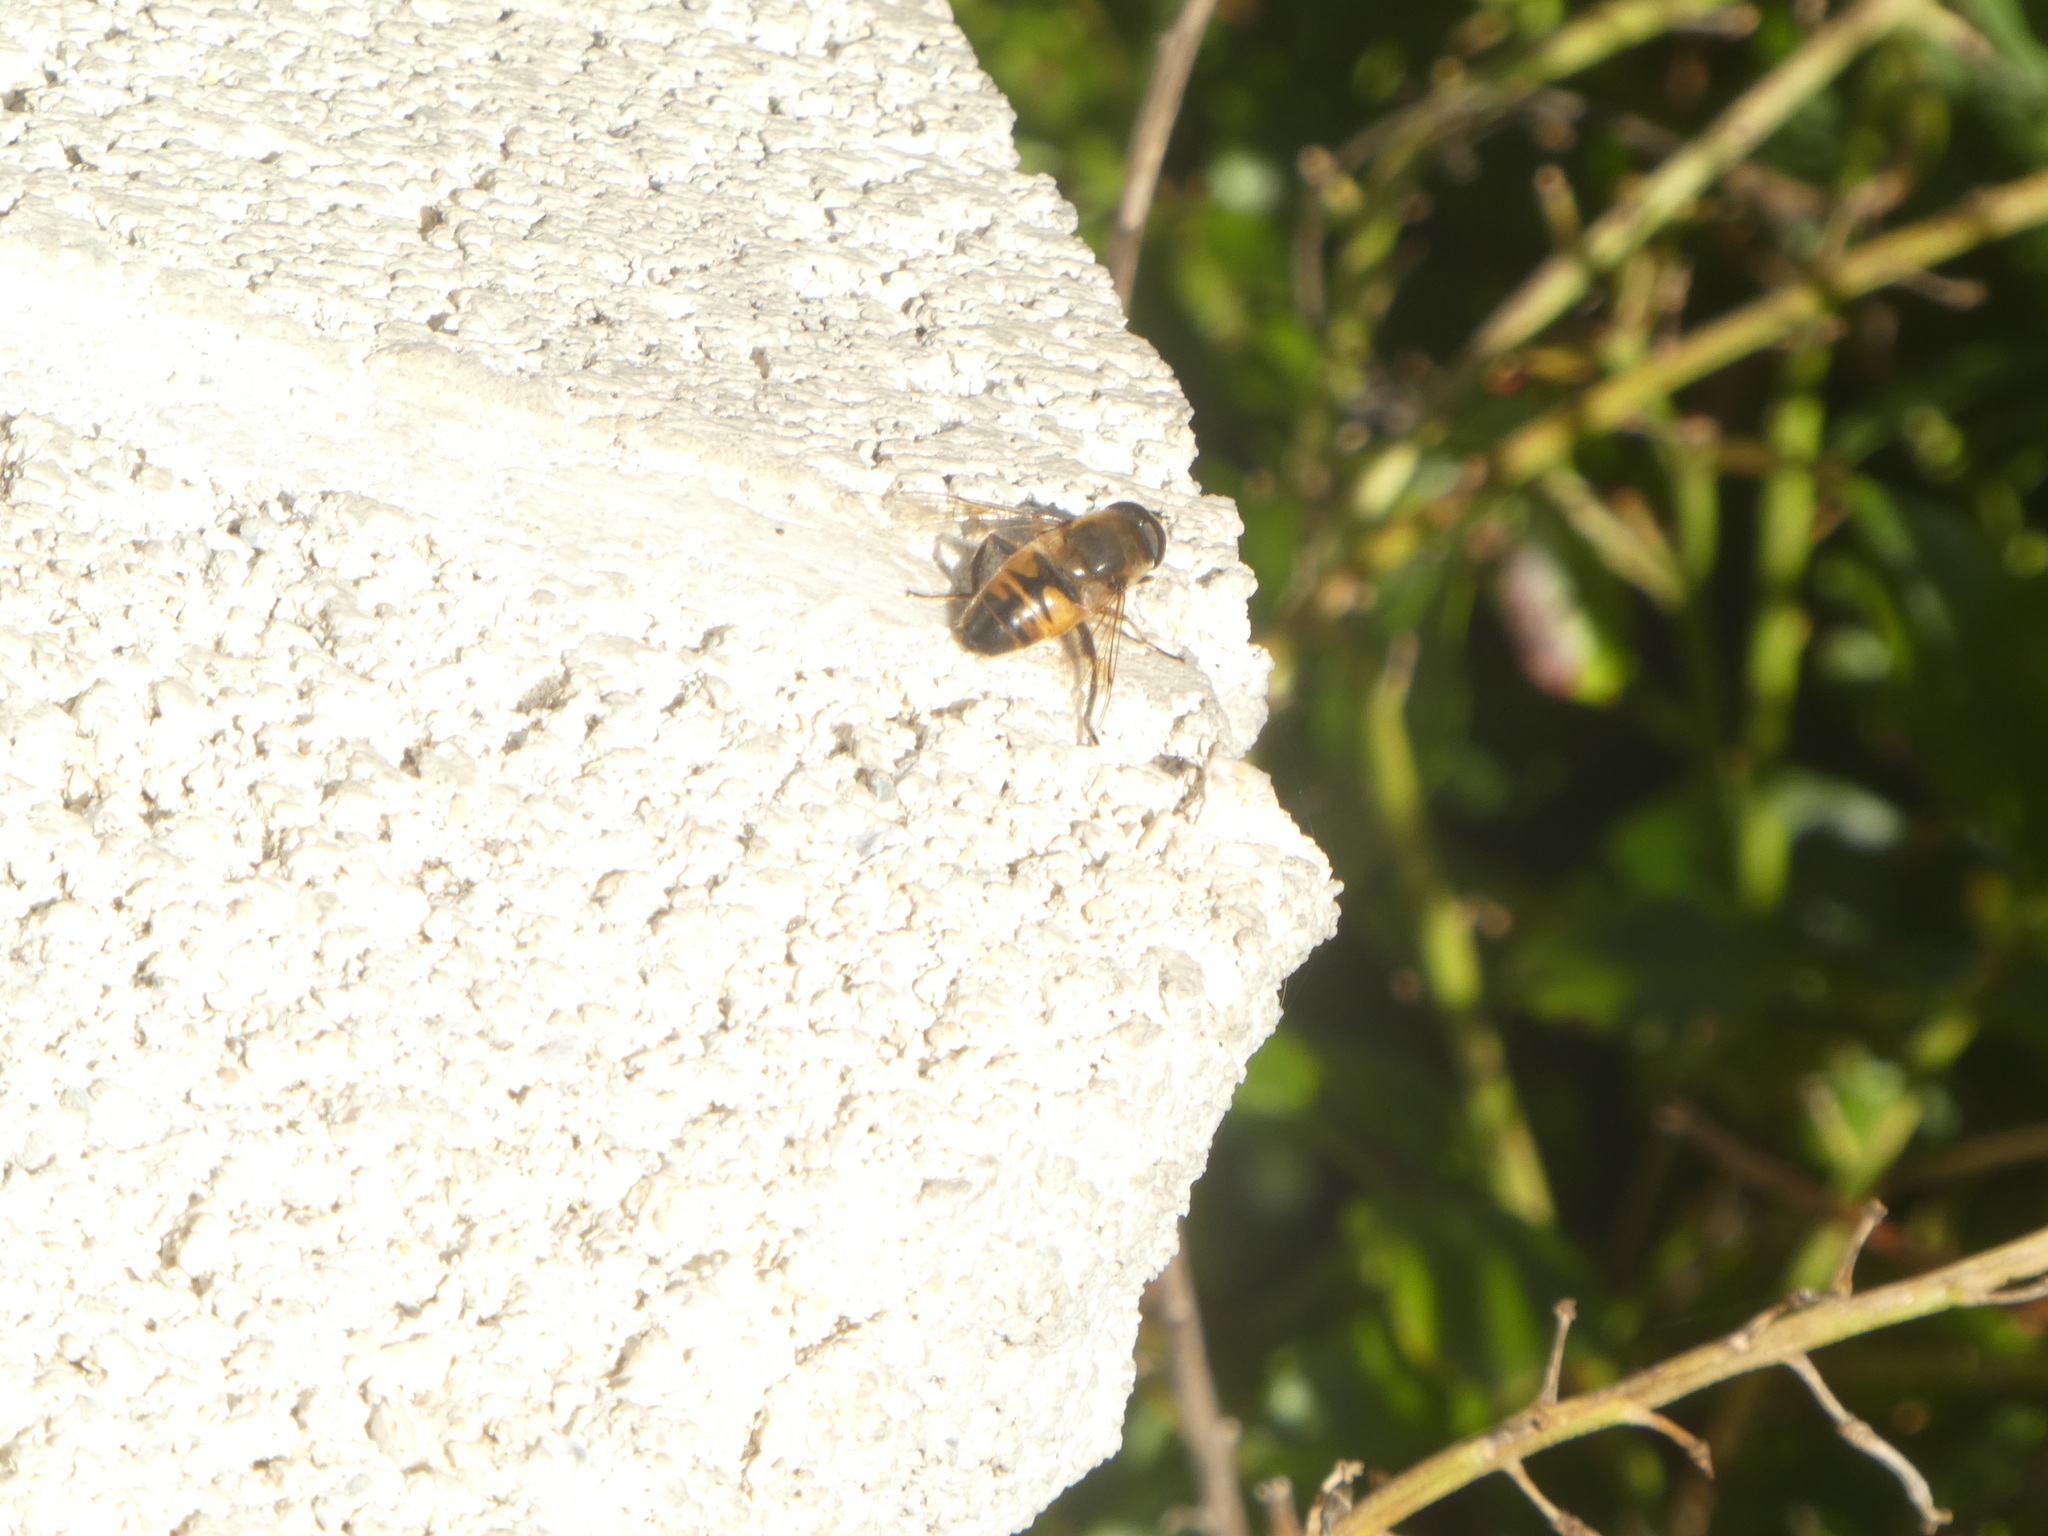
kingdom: Animalia
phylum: Arthropoda
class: Insecta
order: Diptera
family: Syrphidae
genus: Eristalis
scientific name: Eristalis tenax
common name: Drone fly
